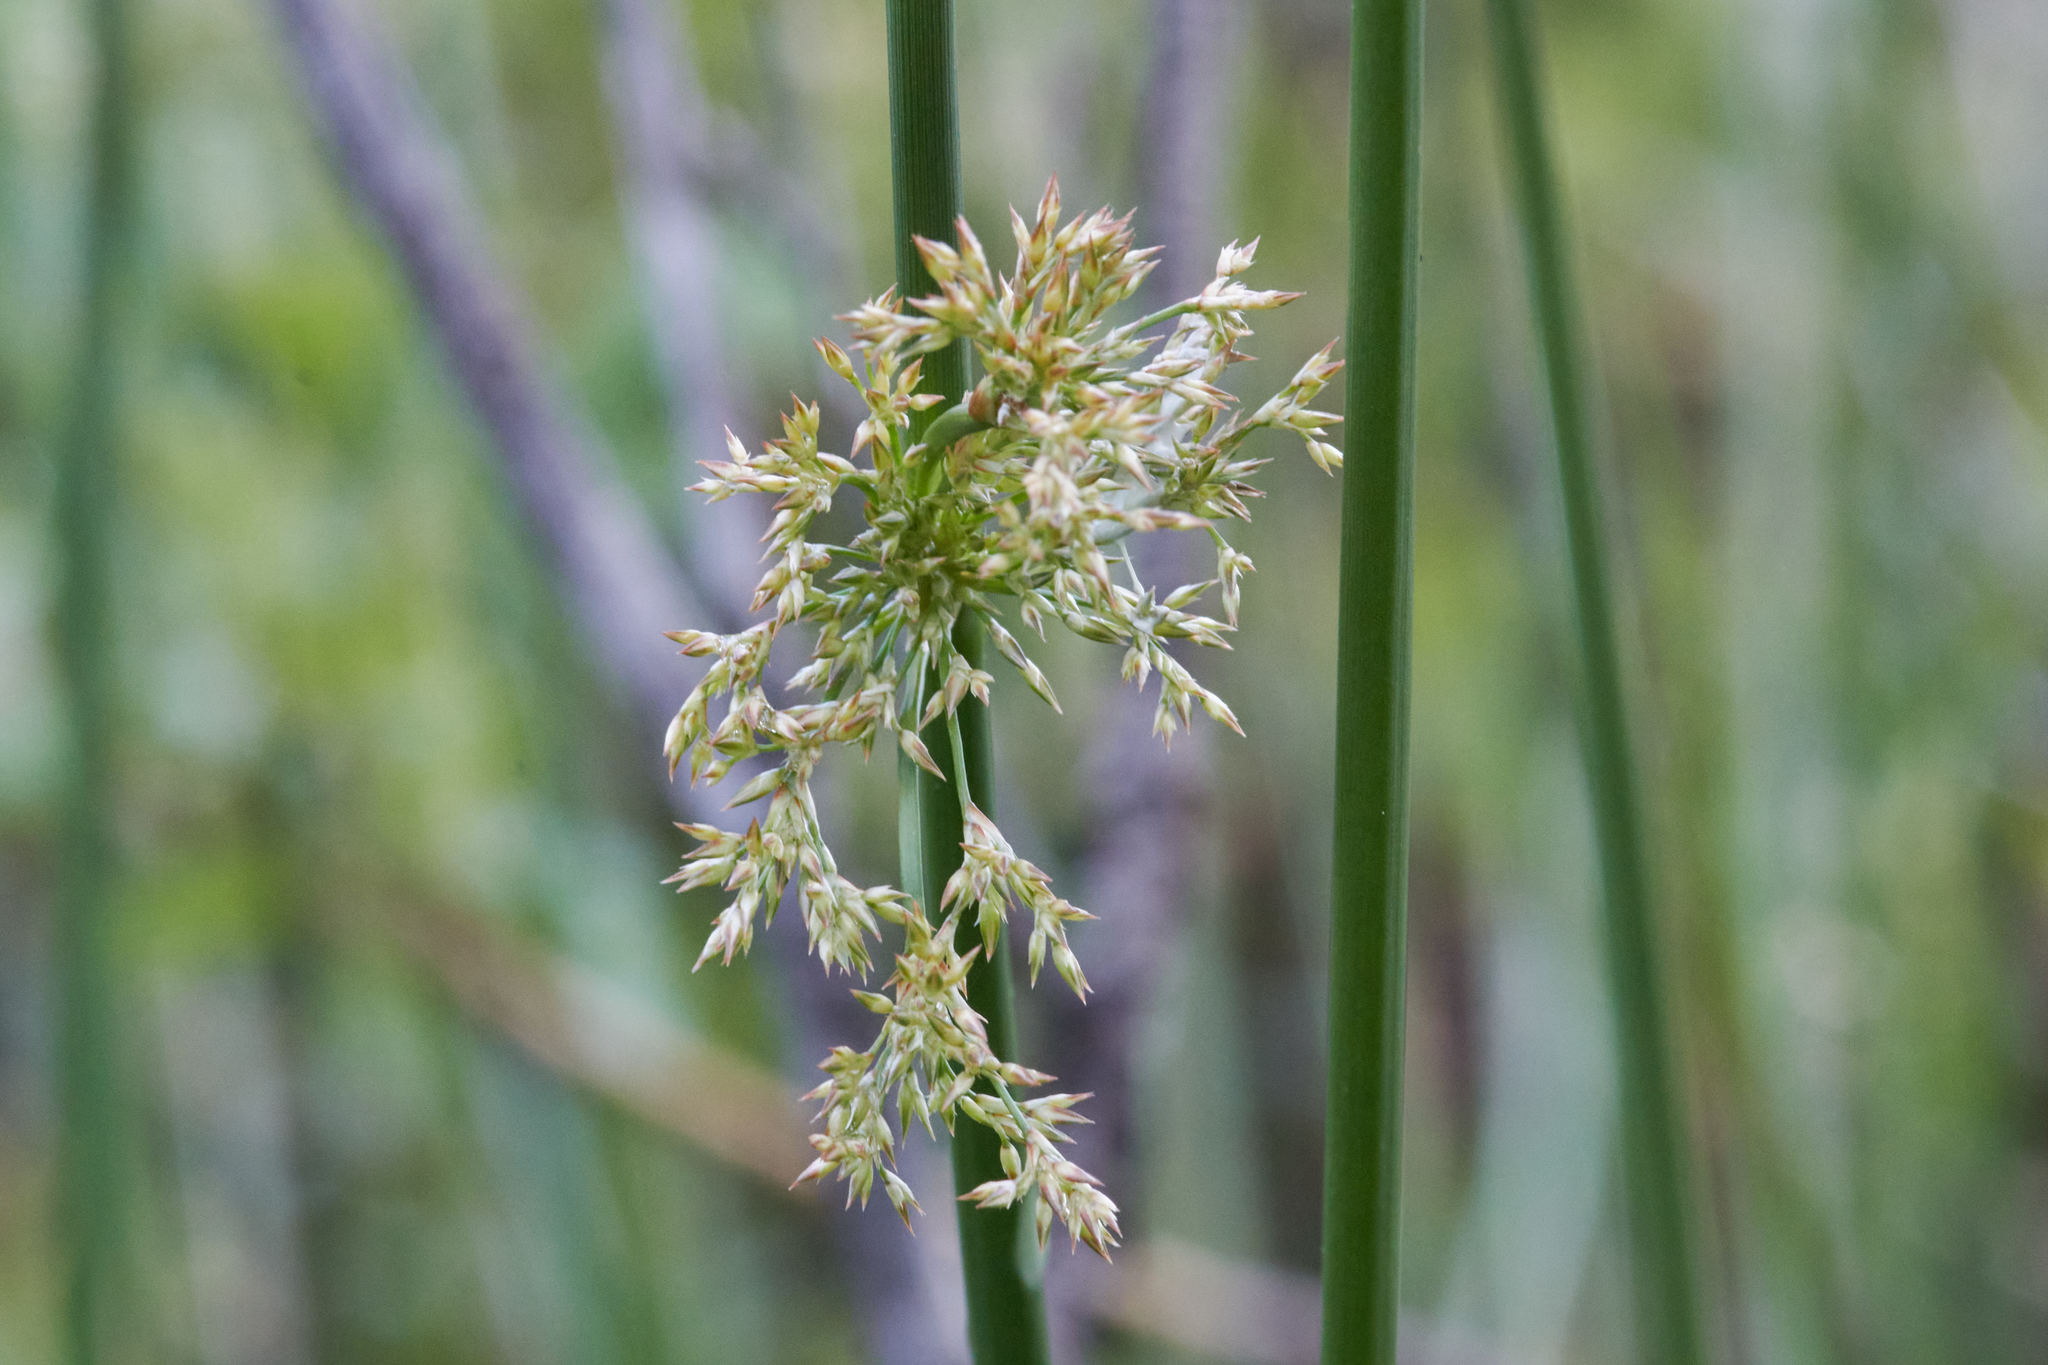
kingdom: Plantae
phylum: Tracheophyta
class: Liliopsida
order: Poales
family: Juncaceae
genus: Juncus
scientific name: Juncus effusus
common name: Soft rush
